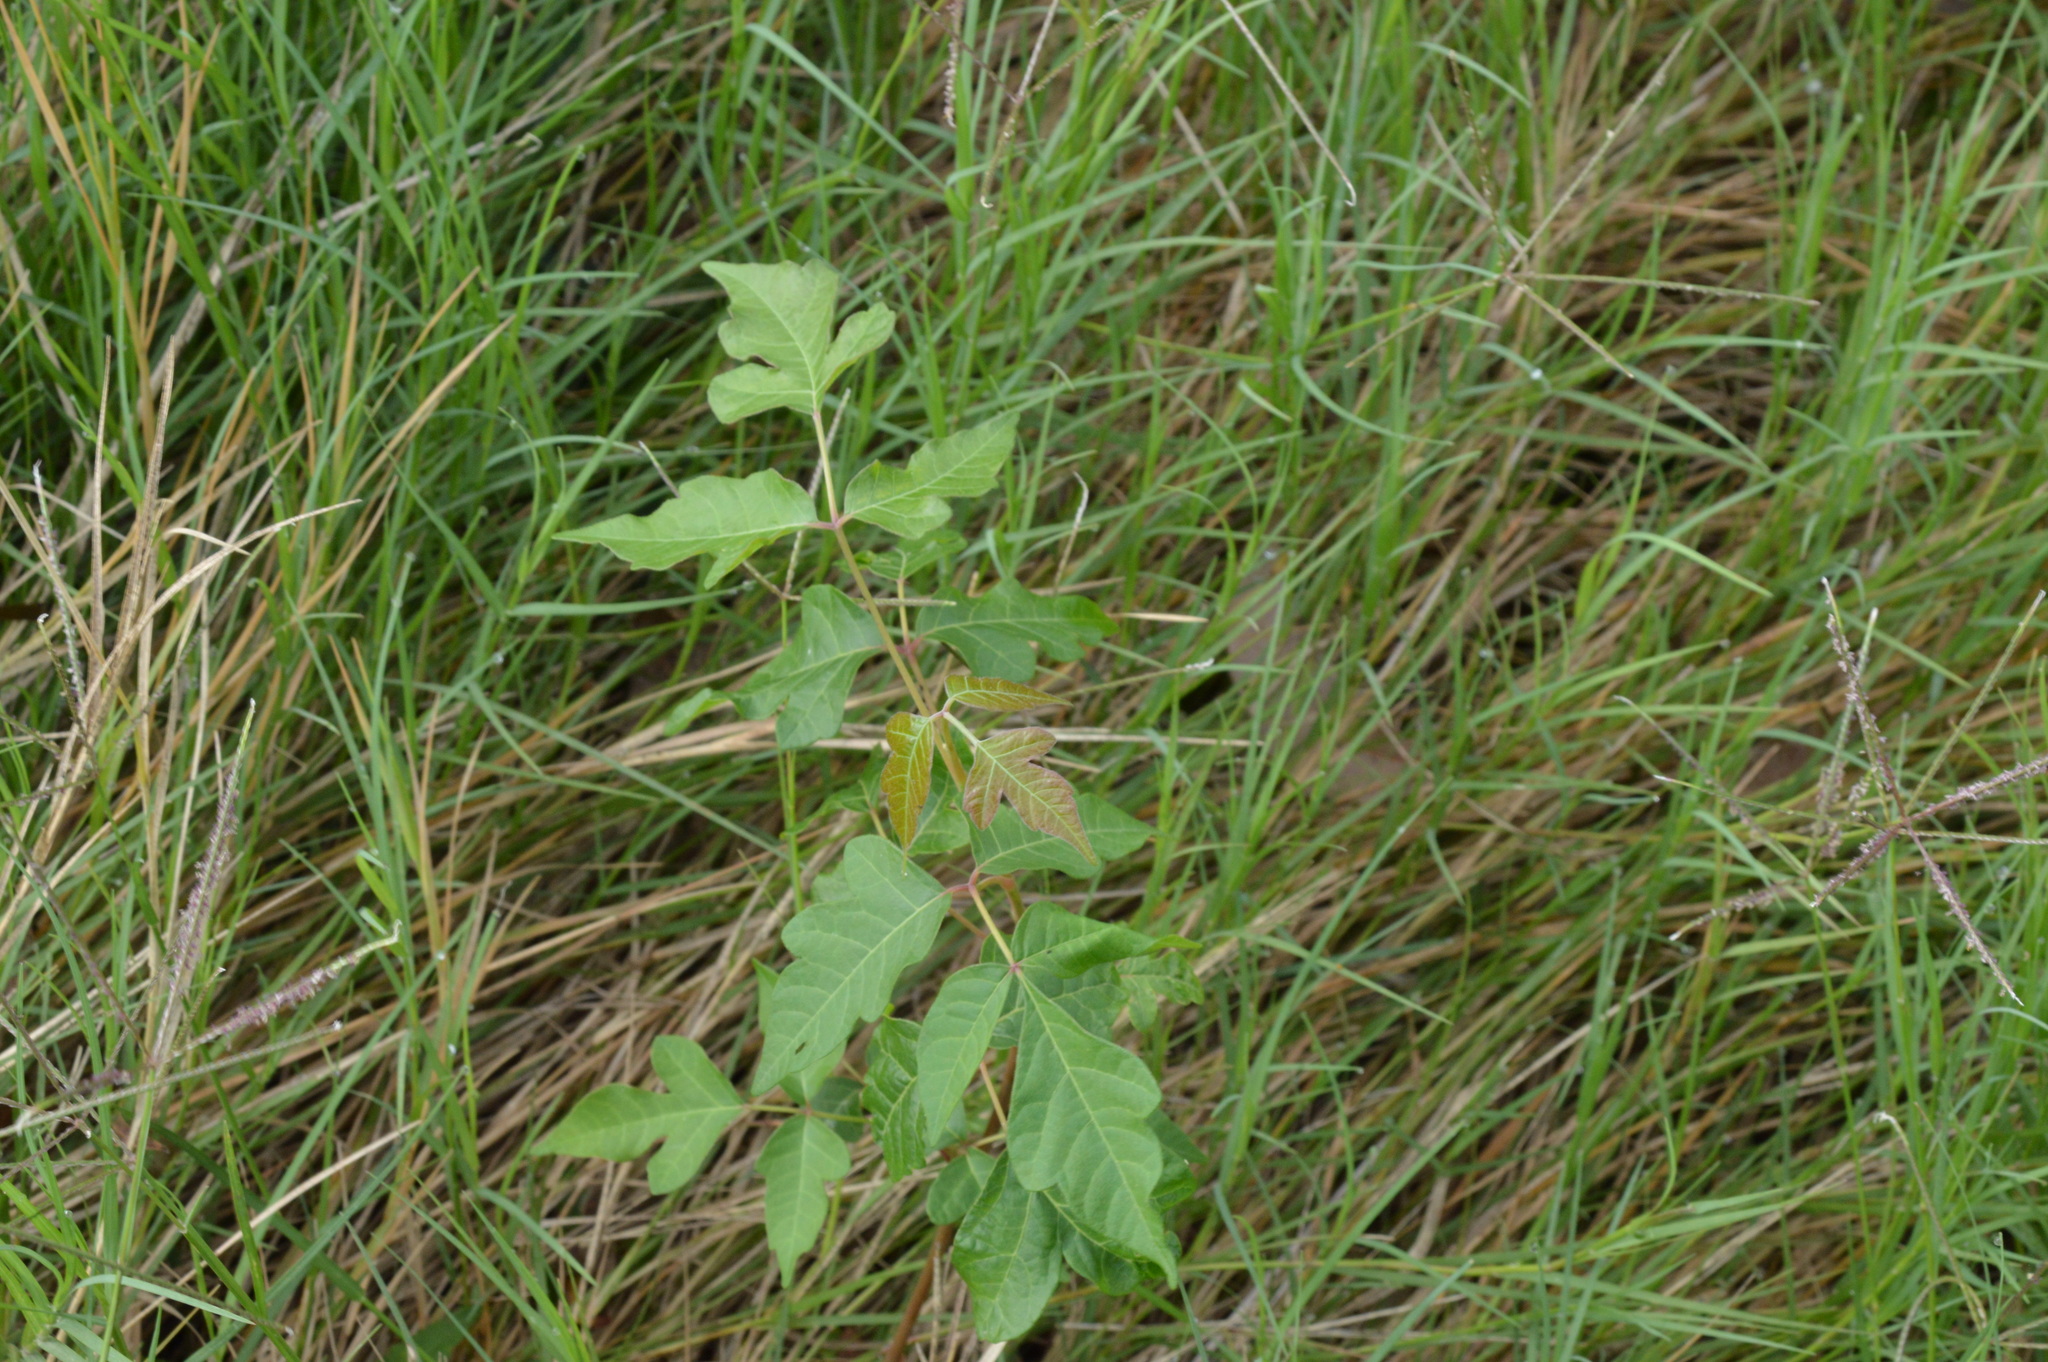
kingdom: Plantae
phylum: Tracheophyta
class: Magnoliopsida
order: Sapindales
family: Anacardiaceae
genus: Toxicodendron
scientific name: Toxicodendron radicans
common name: Poison ivy
